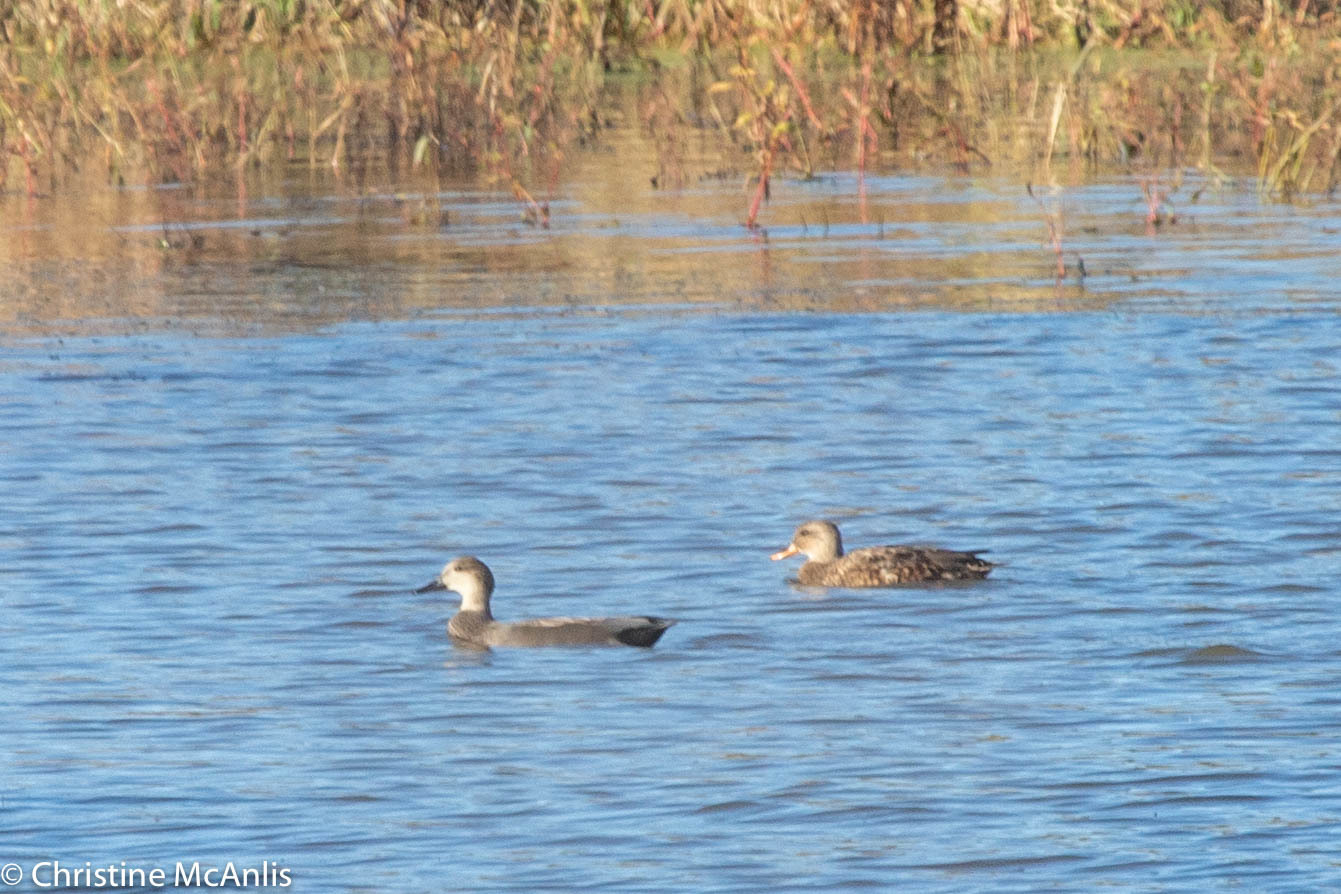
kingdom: Animalia
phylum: Chordata
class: Aves
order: Anseriformes
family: Anatidae
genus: Mareca
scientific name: Mareca strepera
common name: Gadwall
